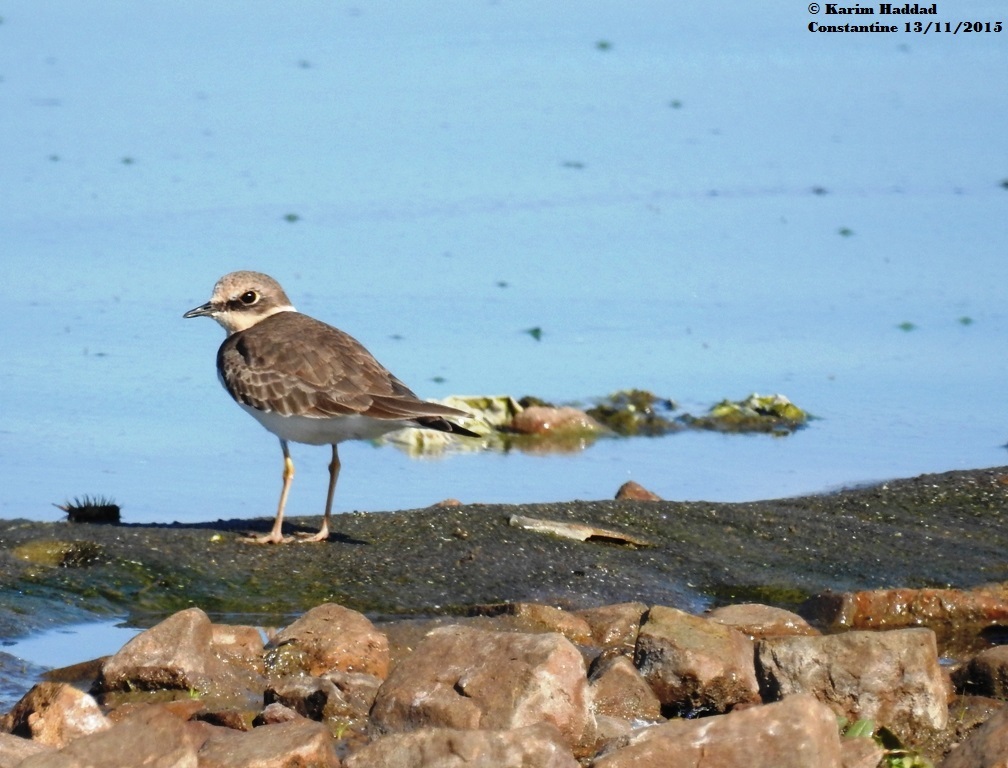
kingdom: Animalia
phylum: Chordata
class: Aves
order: Charadriiformes
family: Charadriidae
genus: Charadrius
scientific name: Charadrius dubius
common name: Little ringed plover
